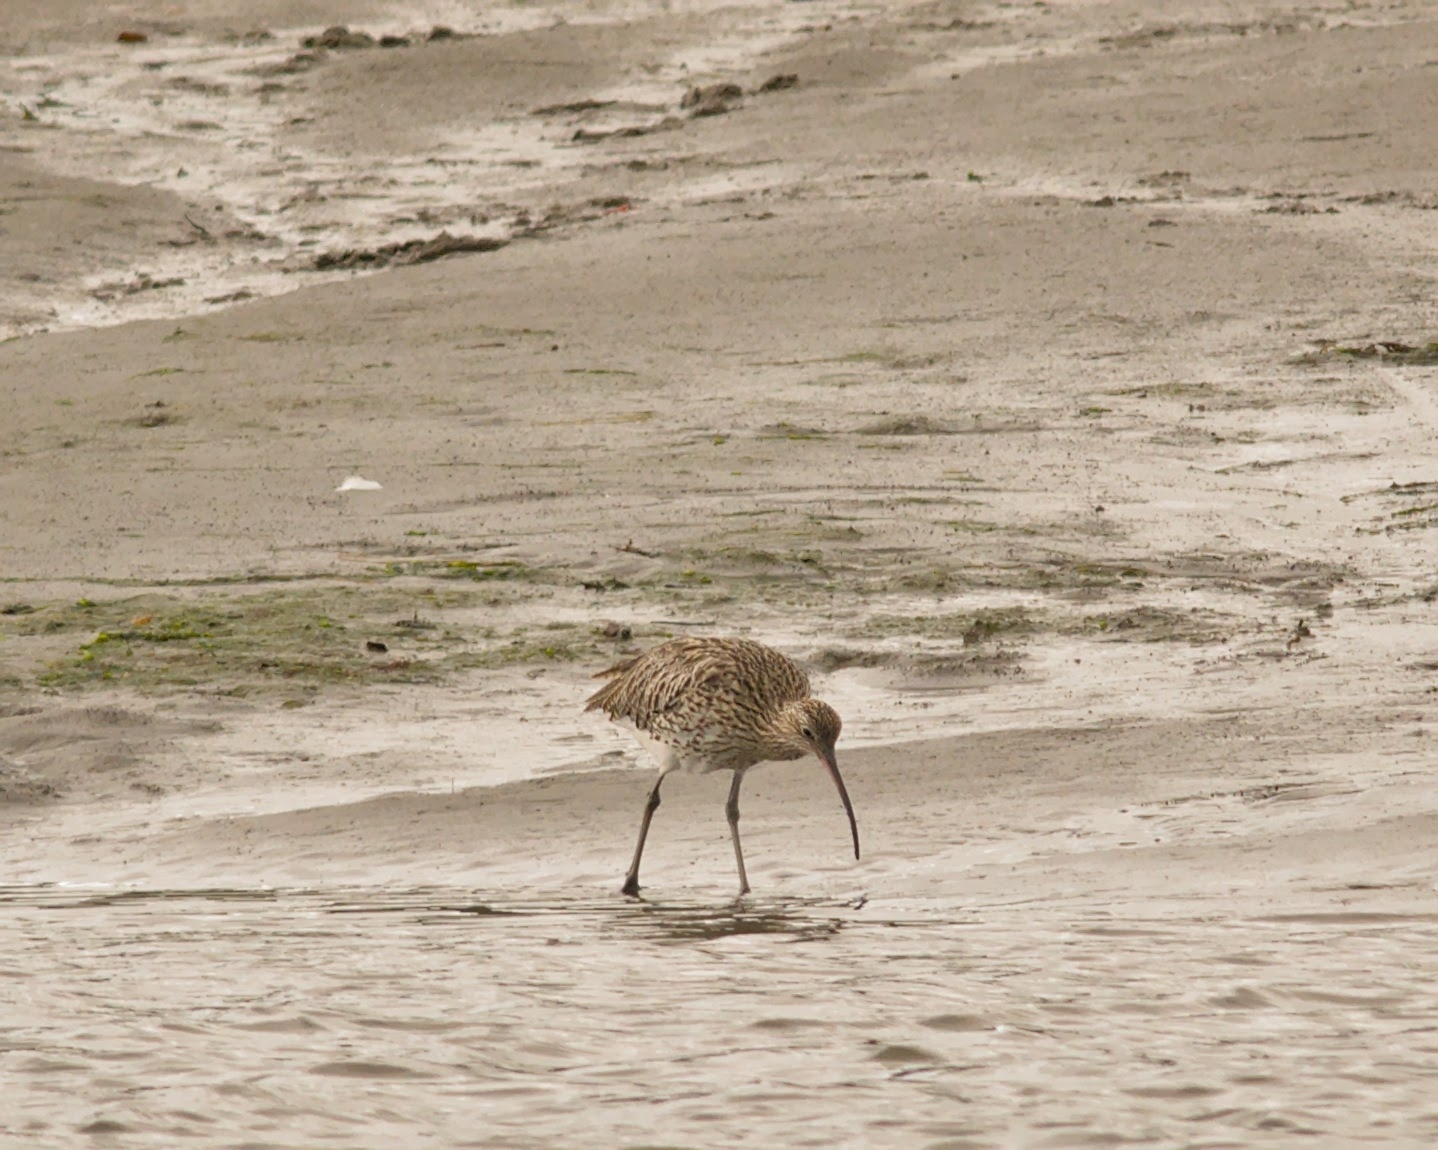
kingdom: Animalia
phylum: Chordata
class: Aves
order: Charadriiformes
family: Scolopacidae
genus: Numenius
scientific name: Numenius arquata
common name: Eurasian curlew
